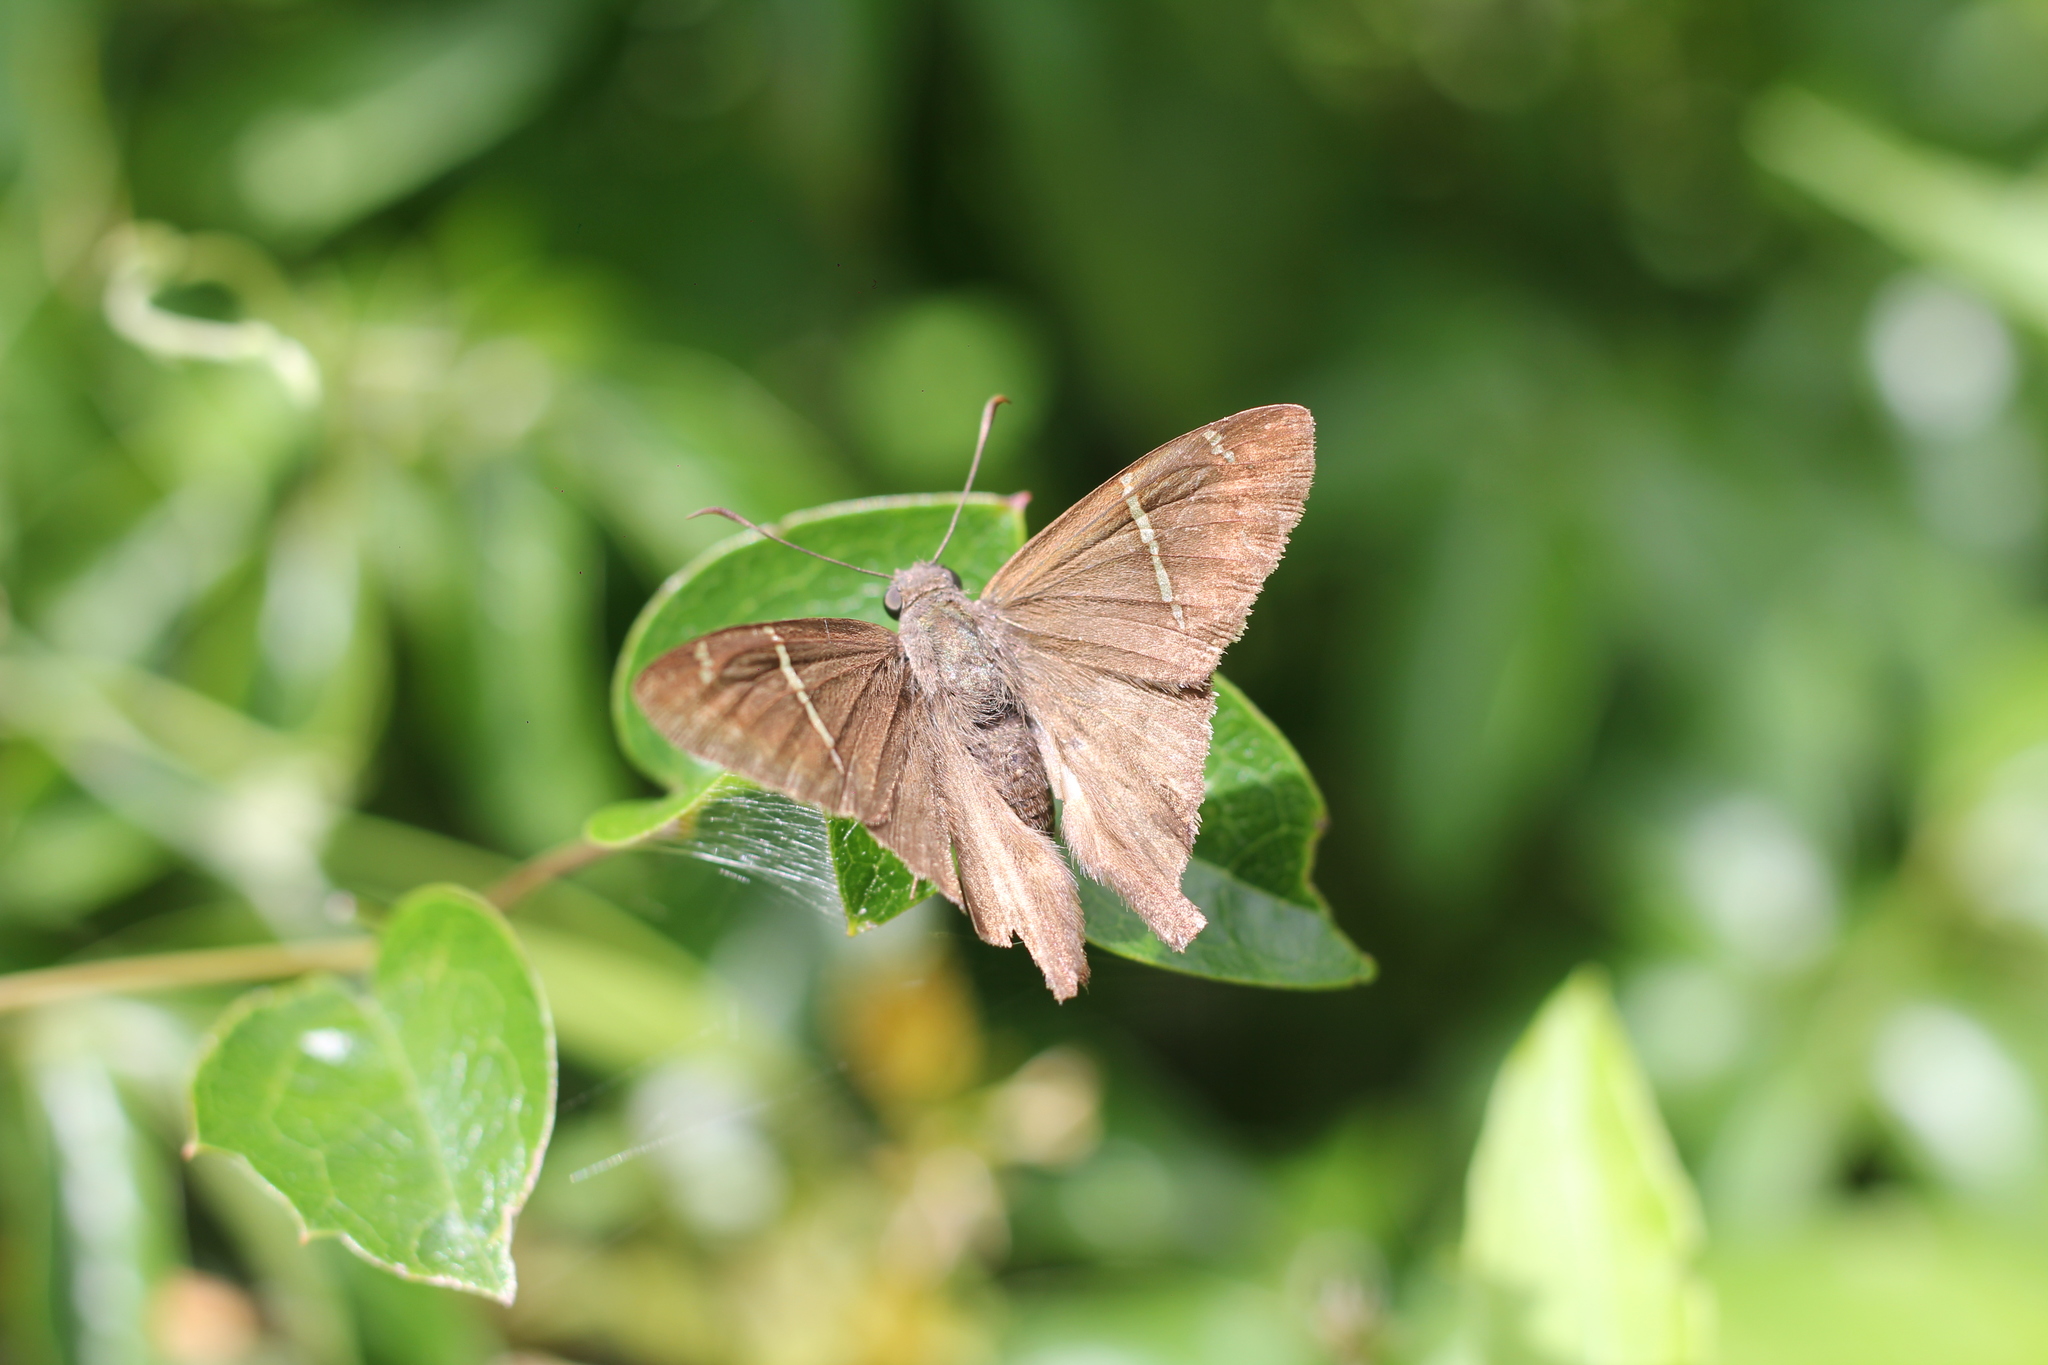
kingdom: Animalia
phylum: Arthropoda
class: Insecta
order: Lepidoptera
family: Hesperiidae
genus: Urbanus
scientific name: Urbanus teleus
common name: Teleus longtail
